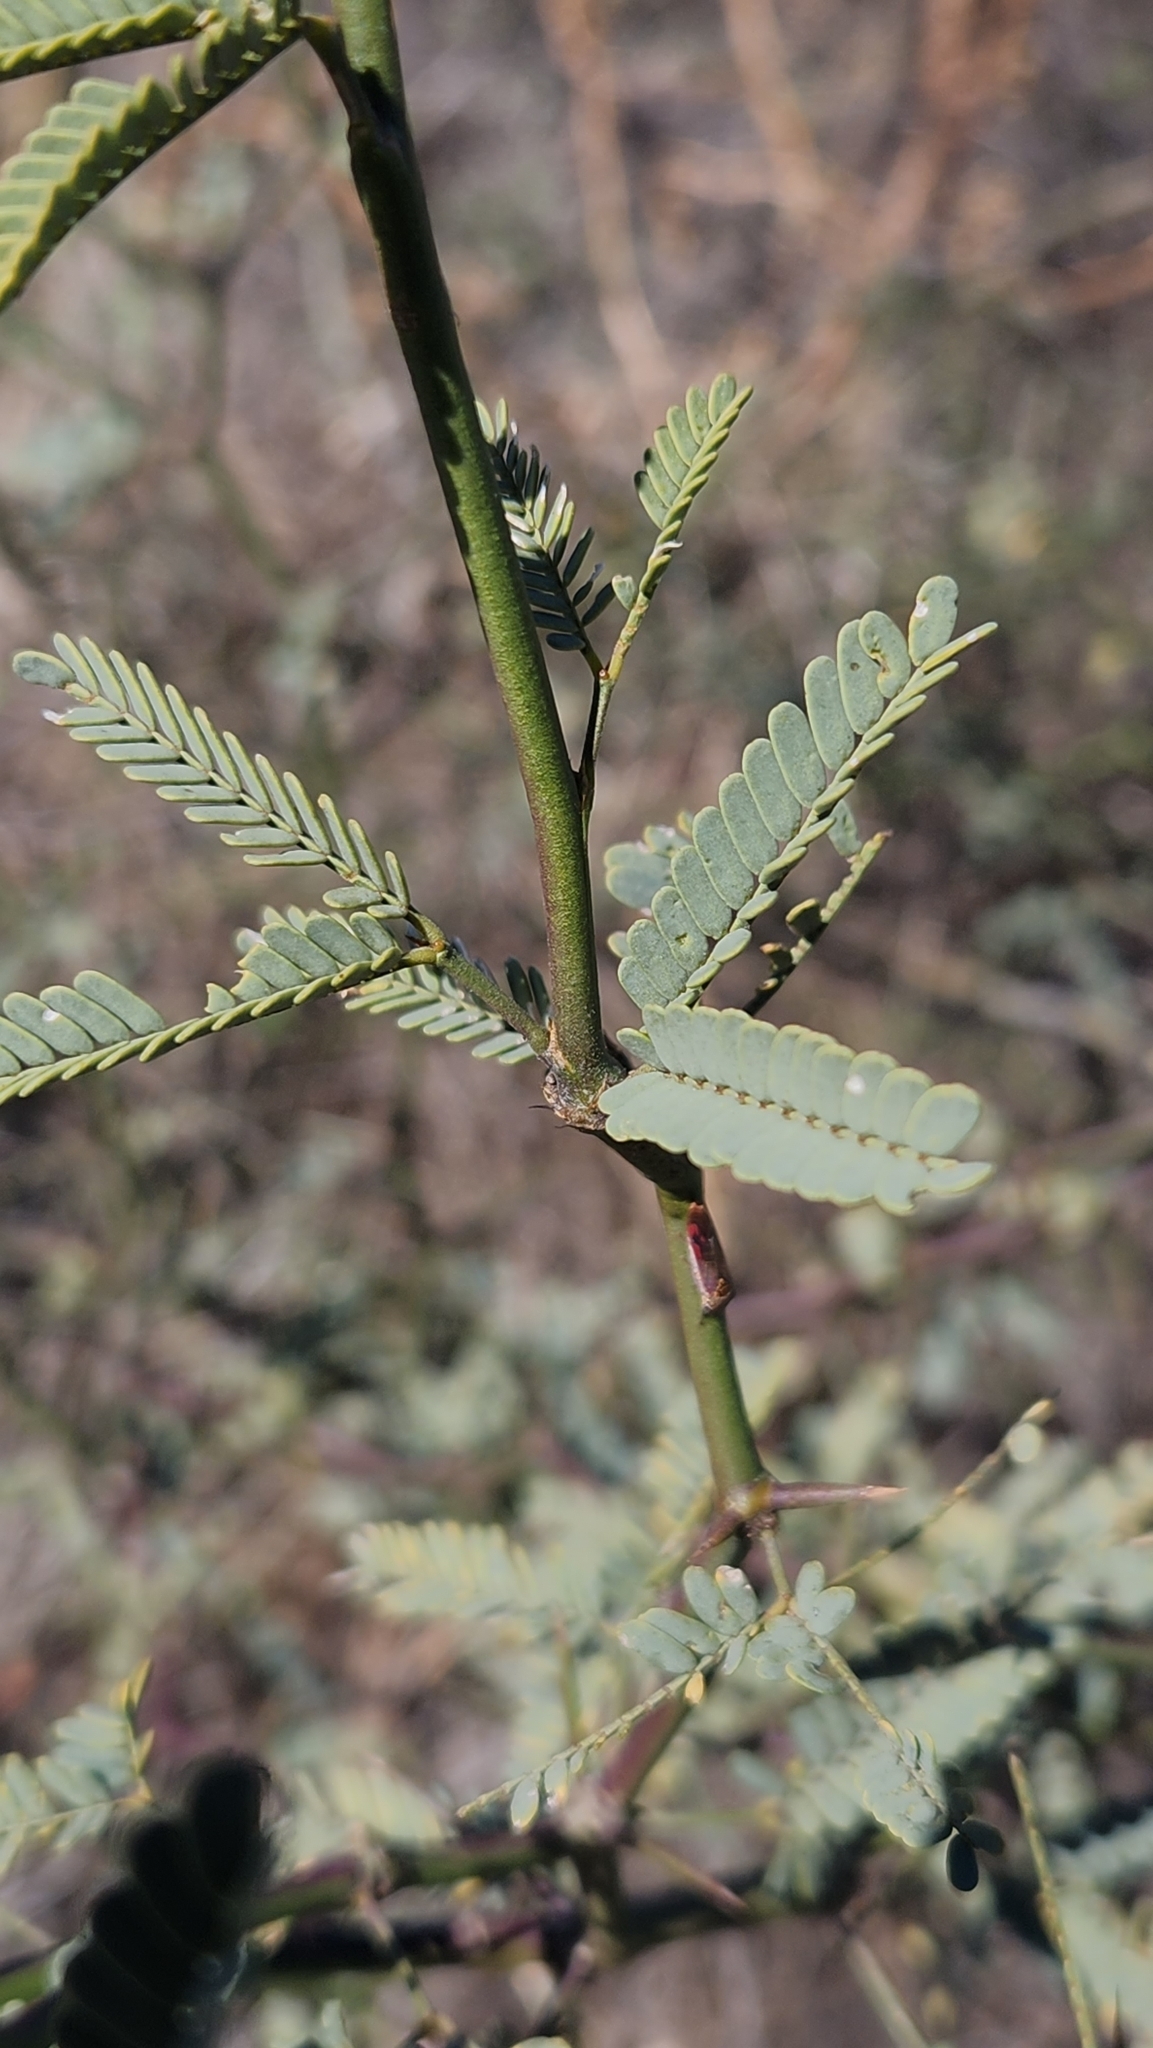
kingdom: Plantae
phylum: Tracheophyta
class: Magnoliopsida
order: Fabales
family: Fabaceae
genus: Prosopis
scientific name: Prosopis articulata
